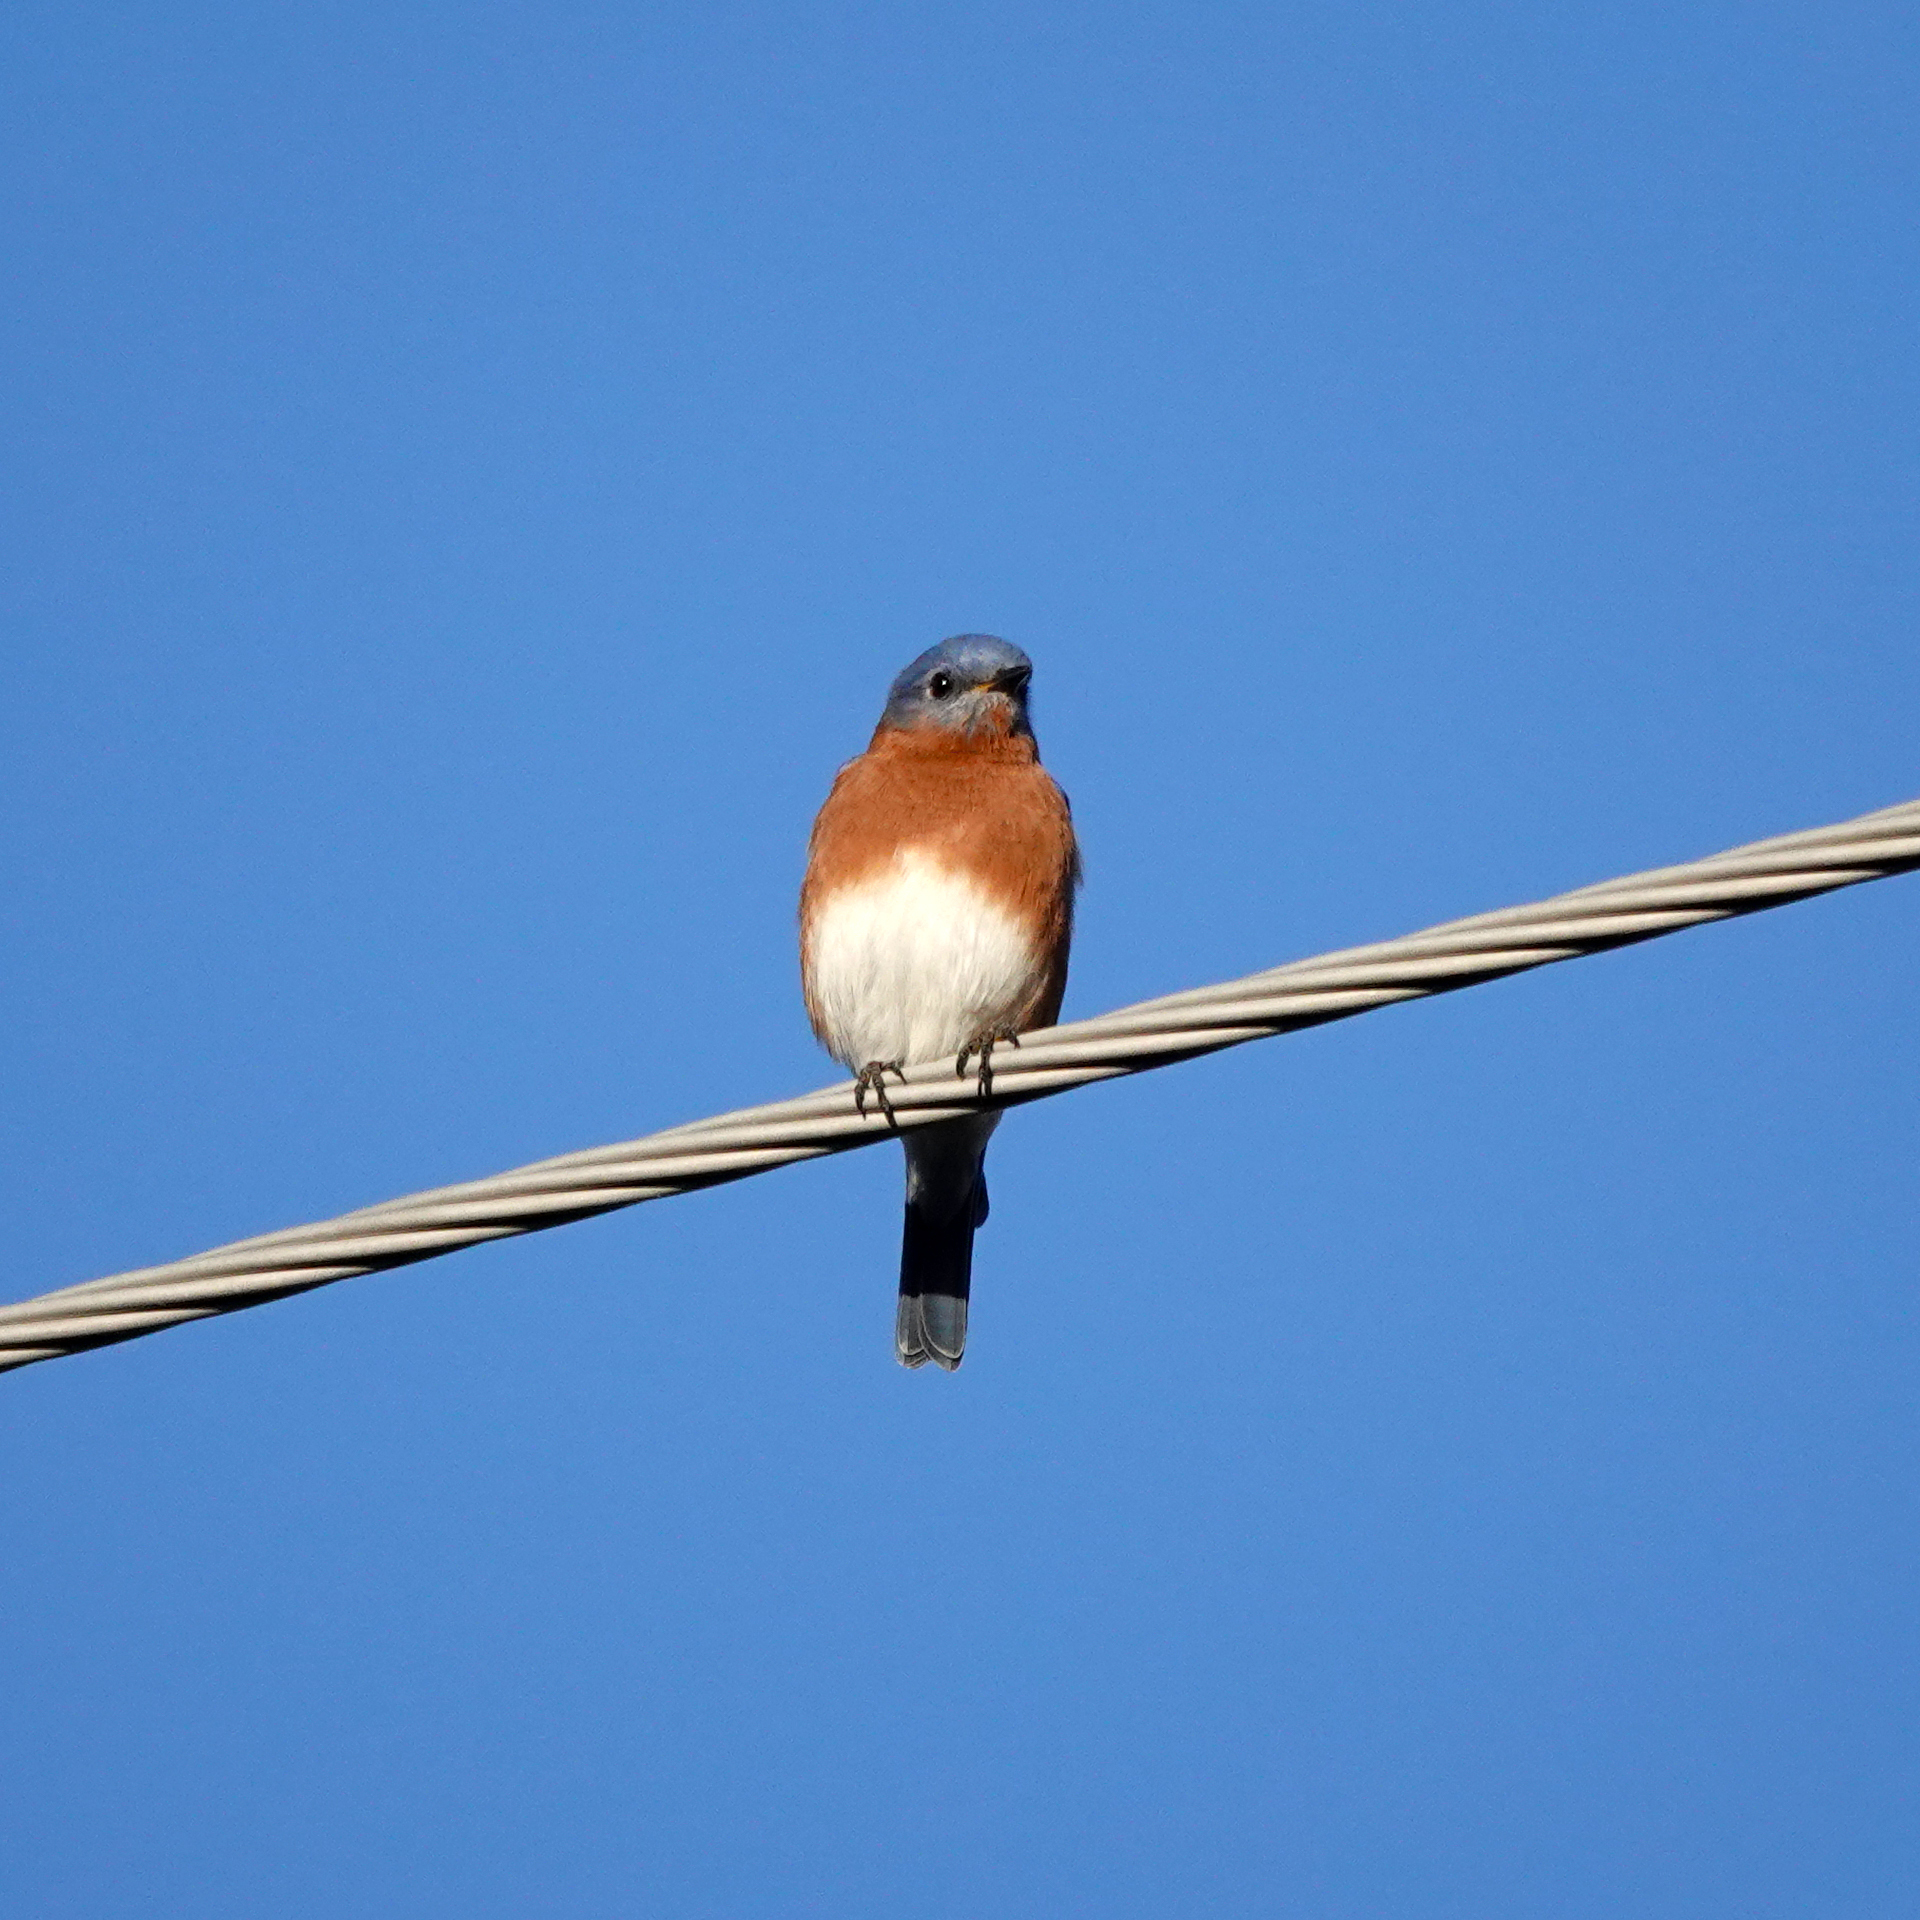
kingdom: Animalia
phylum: Chordata
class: Aves
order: Passeriformes
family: Turdidae
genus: Sialia
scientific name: Sialia sialis
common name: Eastern bluebird
